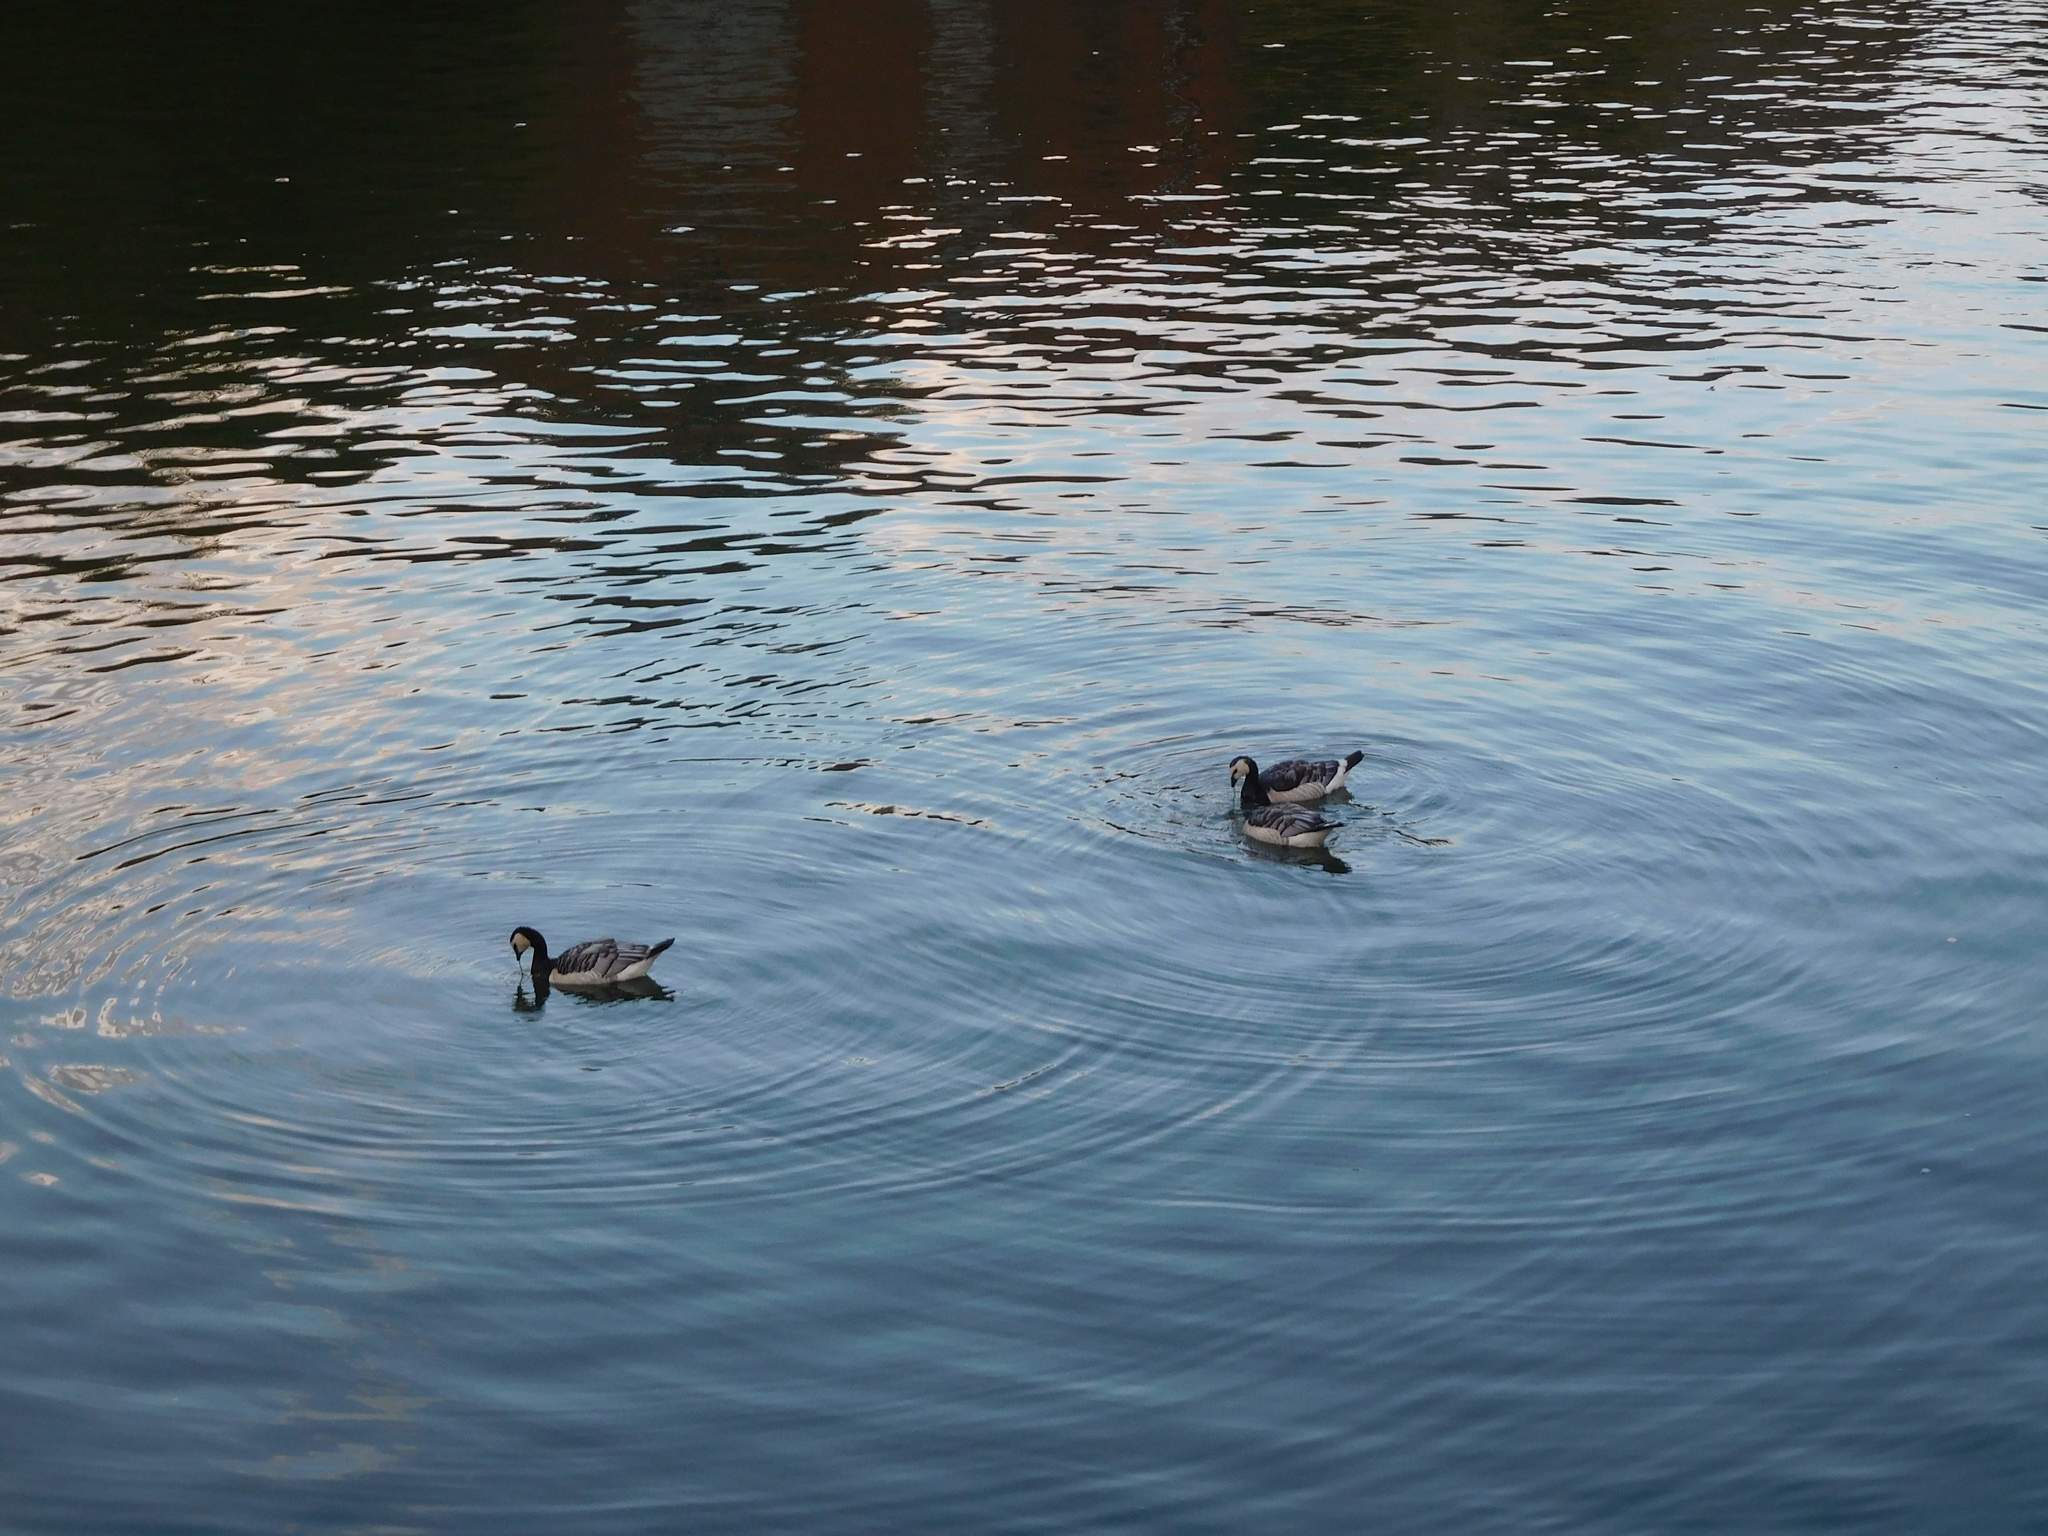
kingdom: Animalia
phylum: Chordata
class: Aves
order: Anseriformes
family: Anatidae
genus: Branta
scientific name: Branta leucopsis
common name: Barnacle goose
